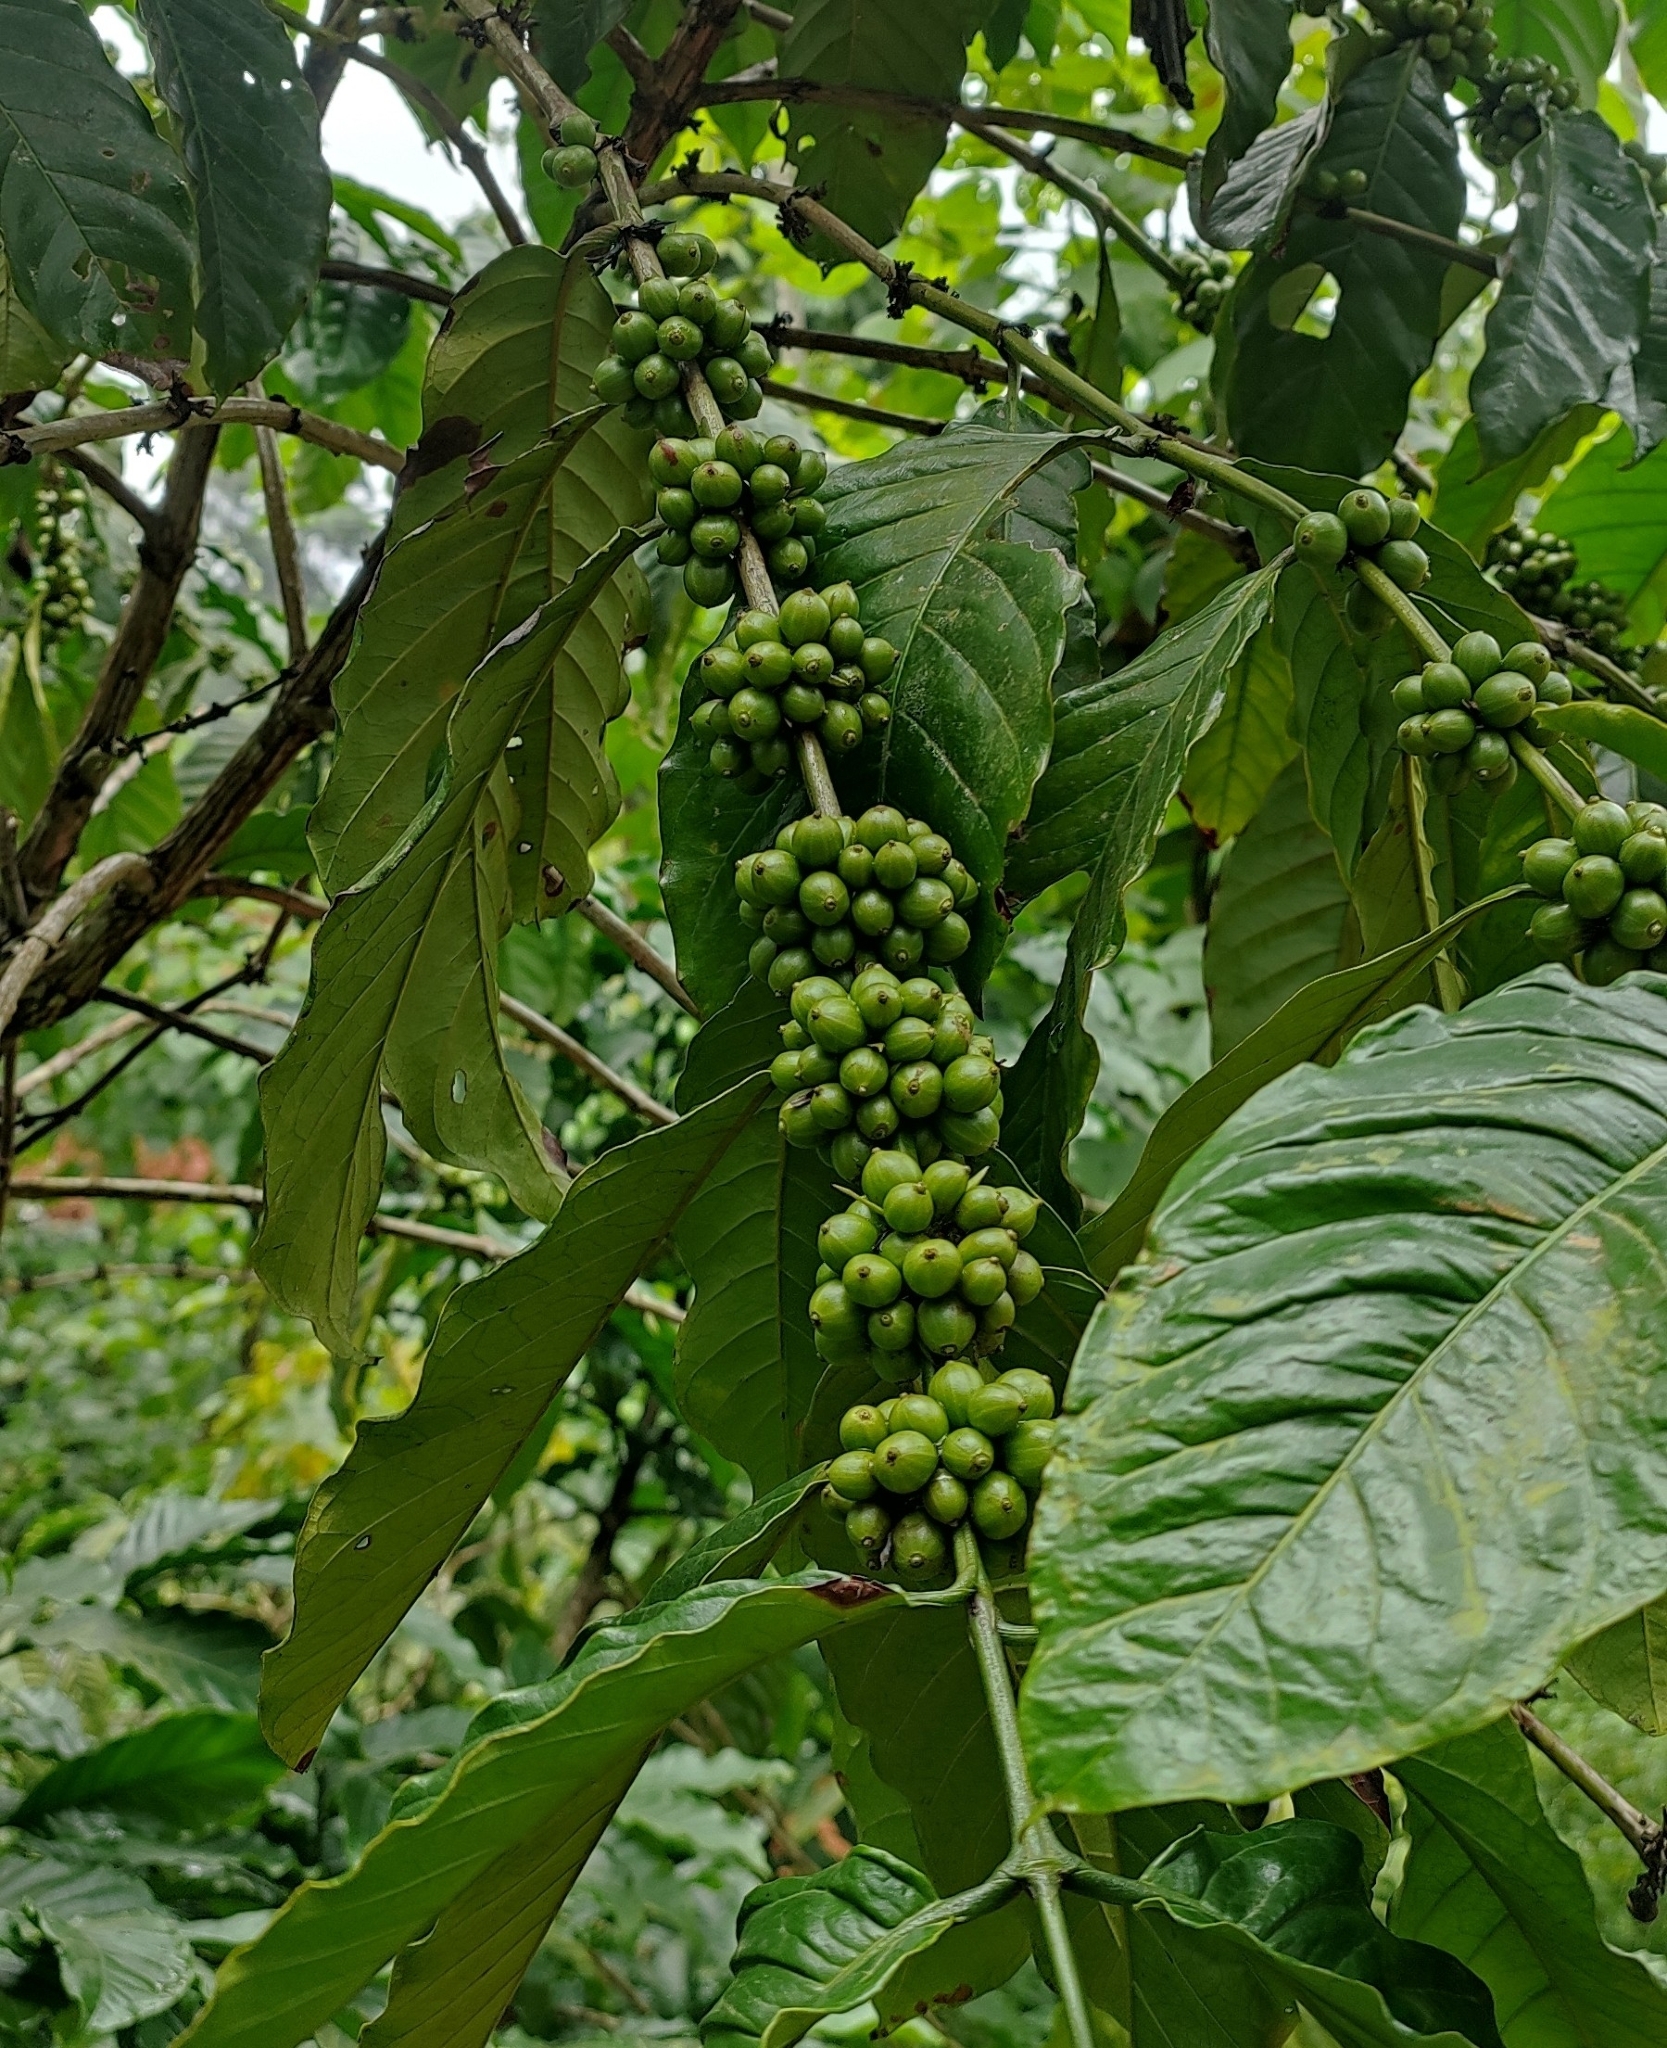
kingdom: Plantae
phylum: Tracheophyta
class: Magnoliopsida
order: Gentianales
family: Rubiaceae
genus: Coffea
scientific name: Coffea arabica
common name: Coffee
